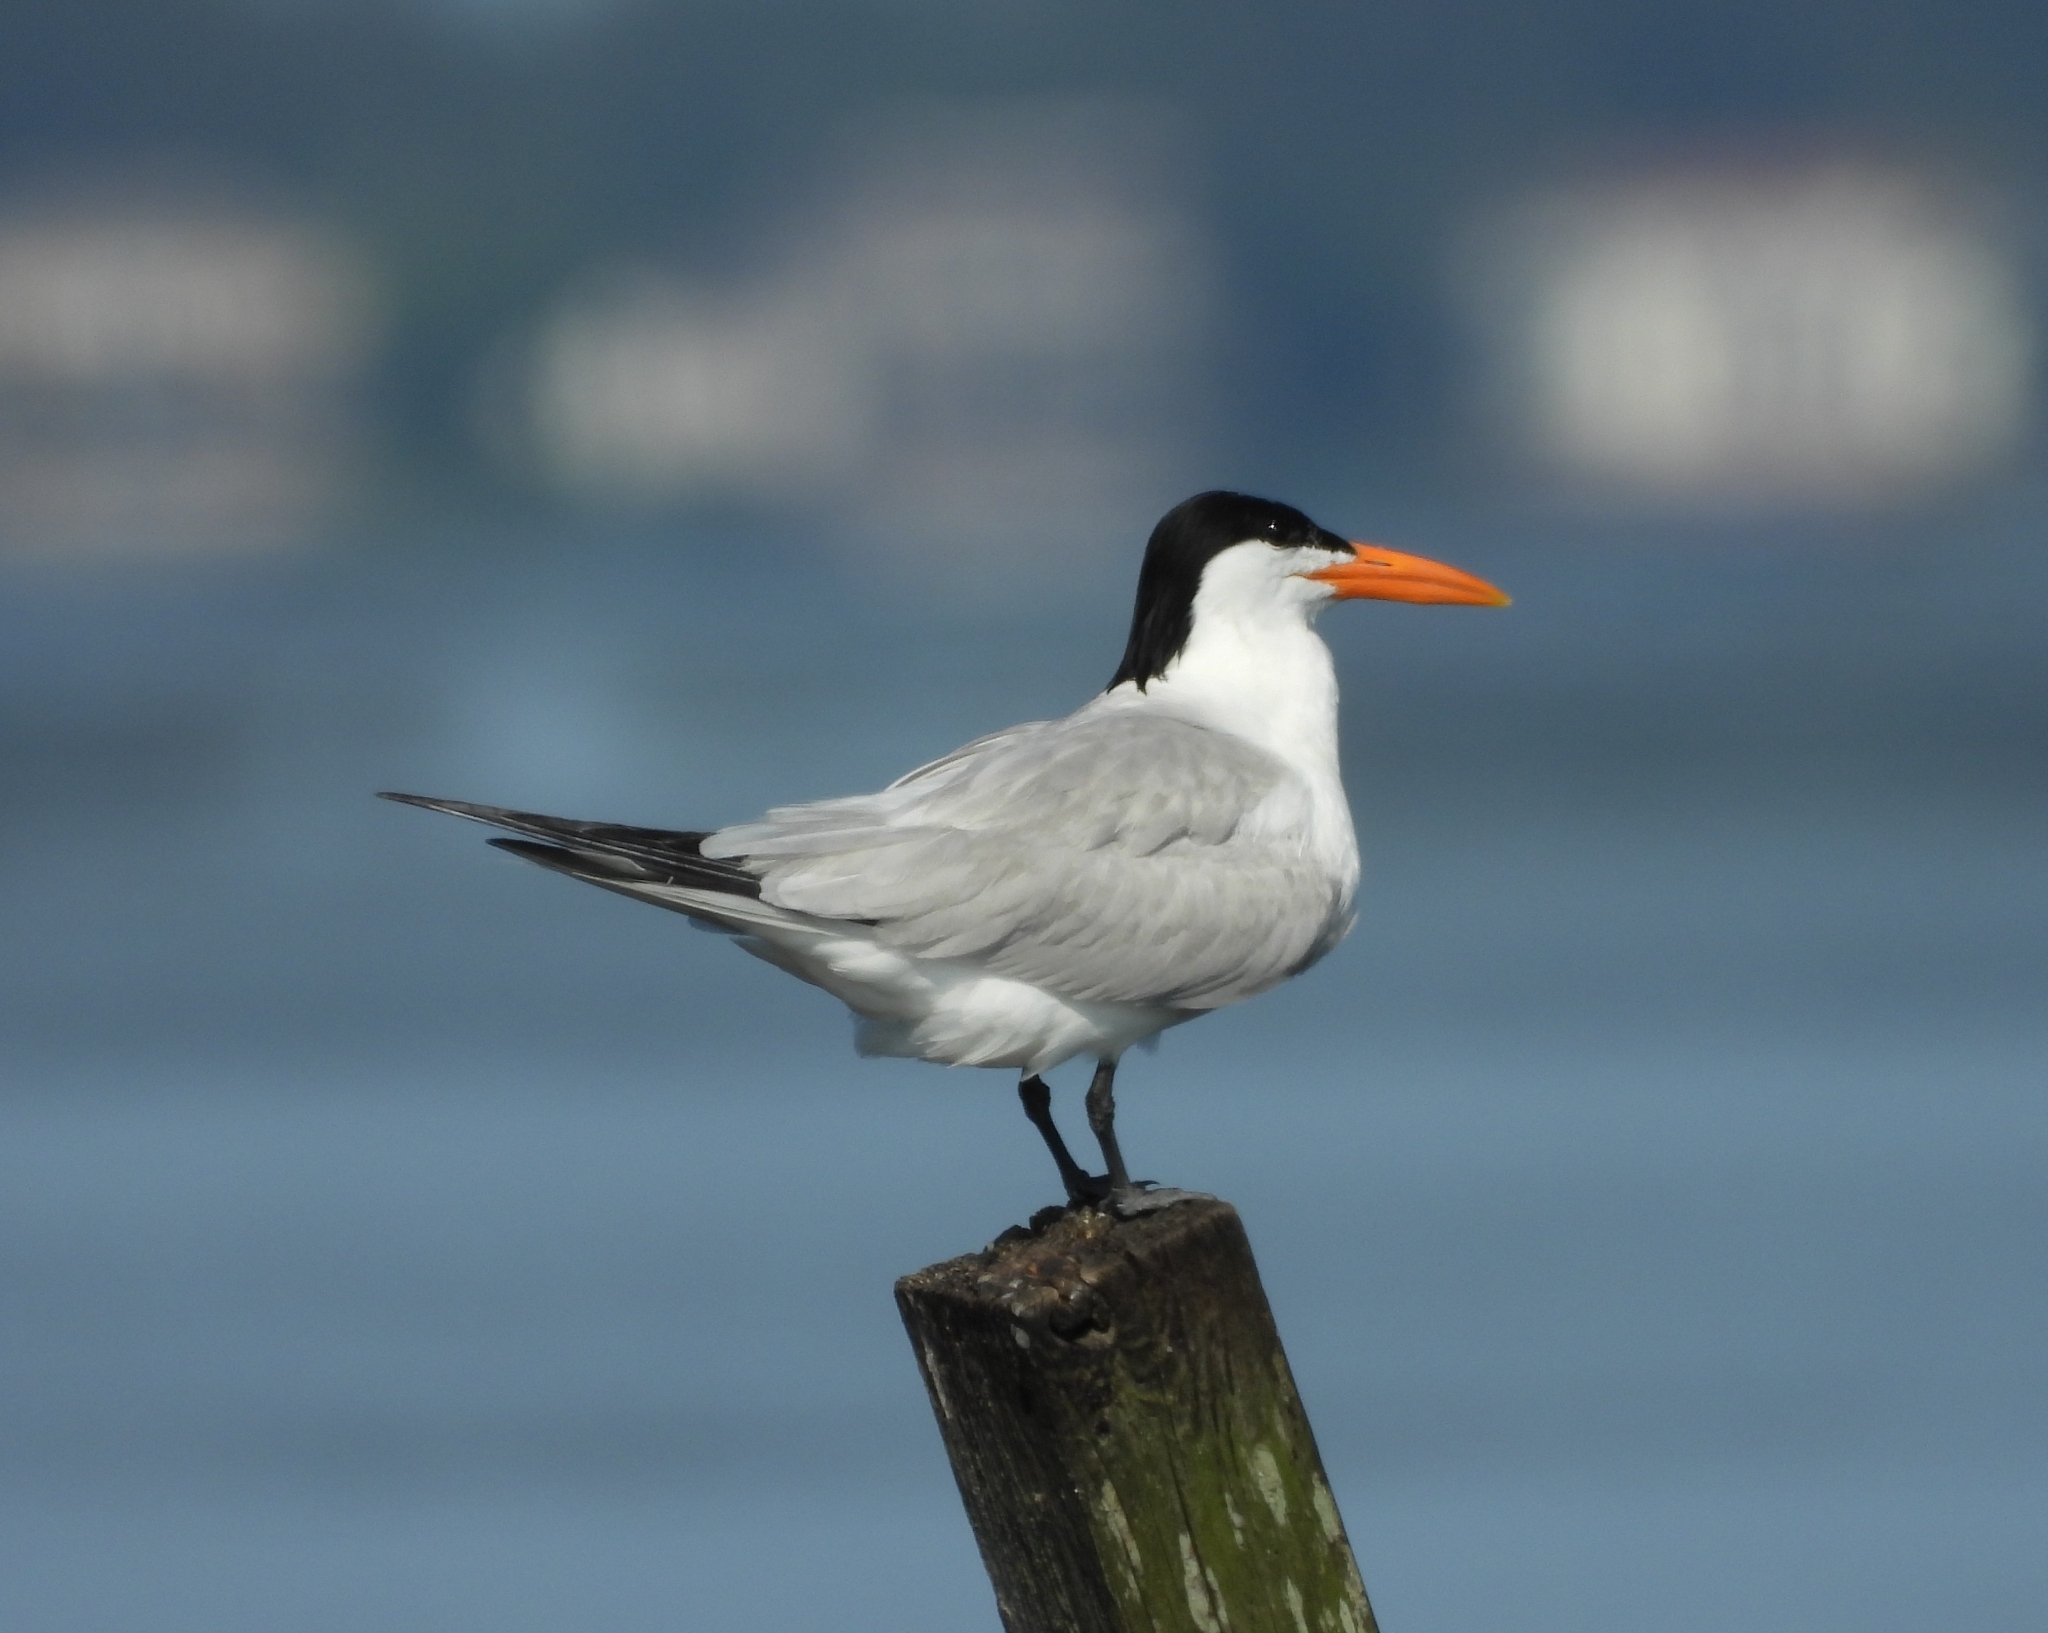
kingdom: Animalia
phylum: Chordata
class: Aves
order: Charadriiformes
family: Laridae
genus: Thalasseus
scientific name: Thalasseus maximus
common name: Royal tern
